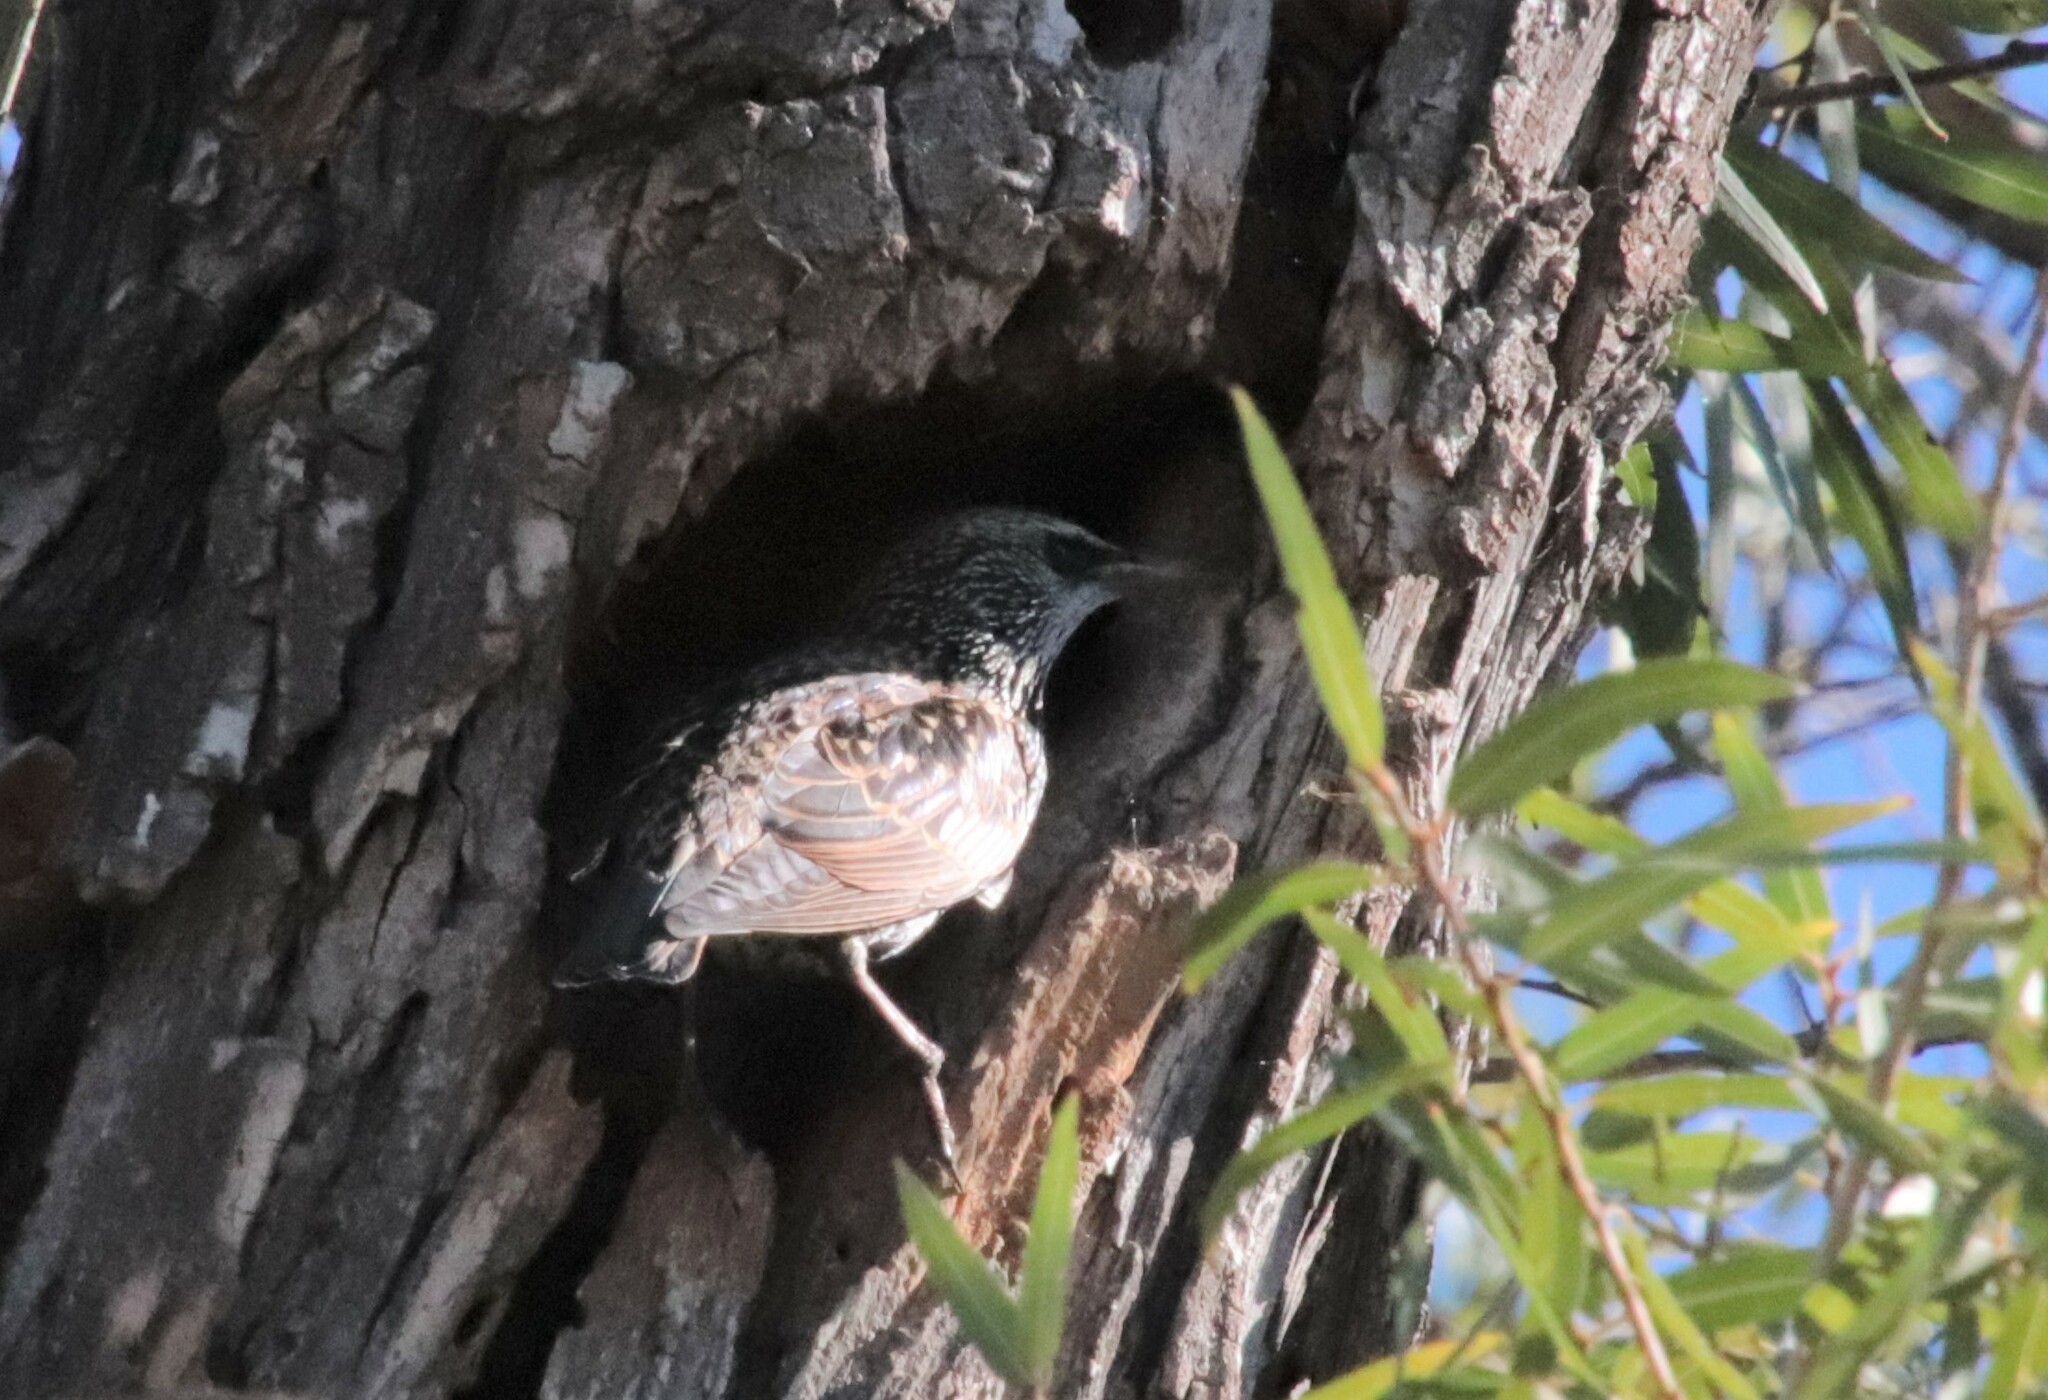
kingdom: Animalia
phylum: Chordata
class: Aves
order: Passeriformes
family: Sturnidae
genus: Sturnus
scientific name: Sturnus vulgaris
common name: Common starling
